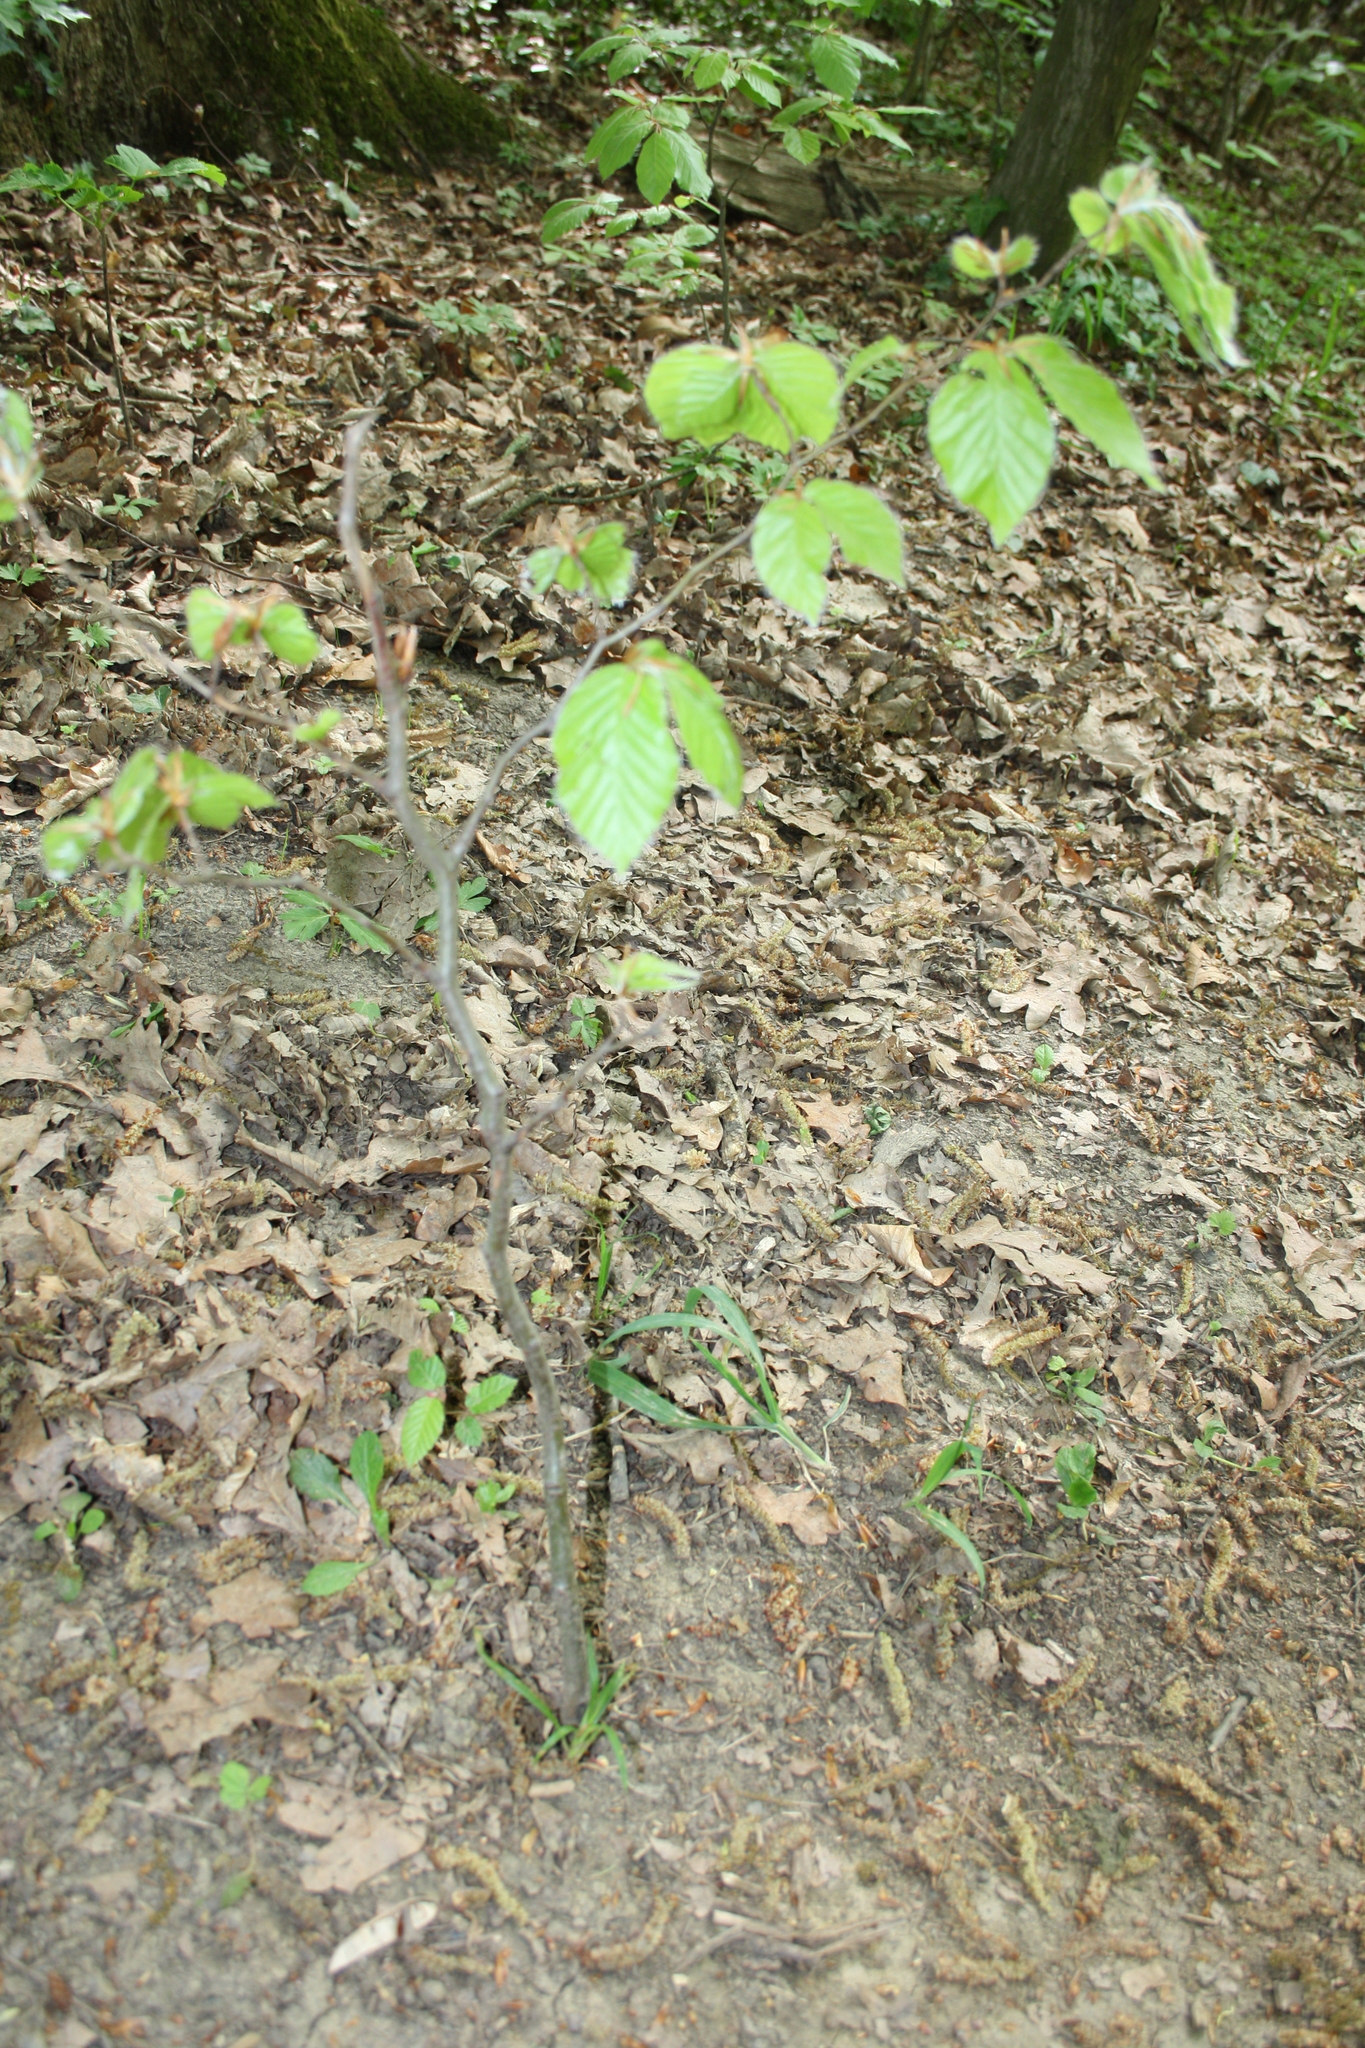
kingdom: Plantae
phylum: Tracheophyta
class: Magnoliopsida
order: Fagales
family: Fagaceae
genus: Fagus
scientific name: Fagus sylvatica
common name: Beech
